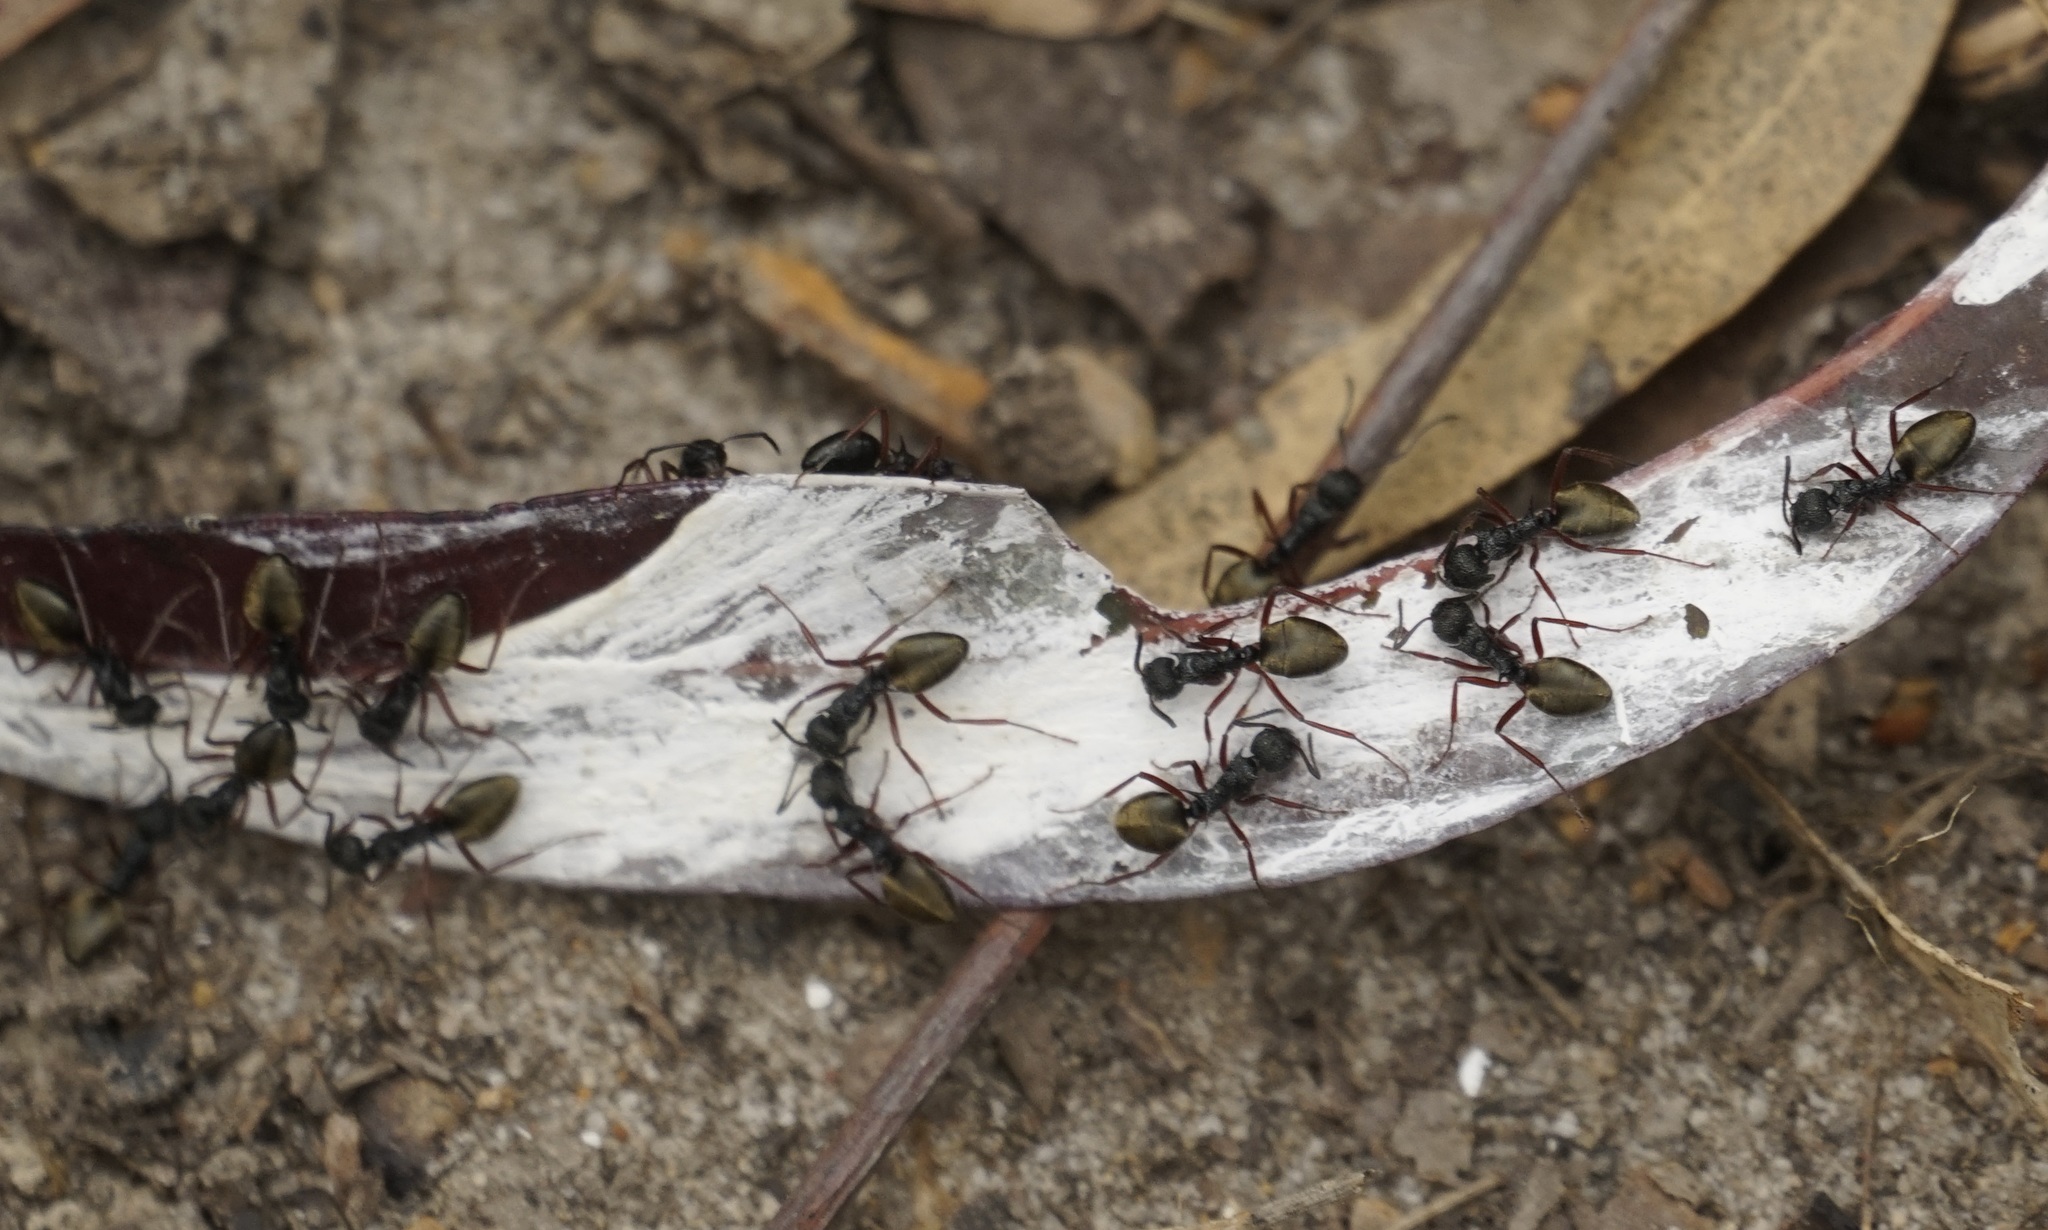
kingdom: Animalia
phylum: Arthropoda
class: Insecta
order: Hymenoptera
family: Formicidae
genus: Dolichoderus
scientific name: Dolichoderus doriae
